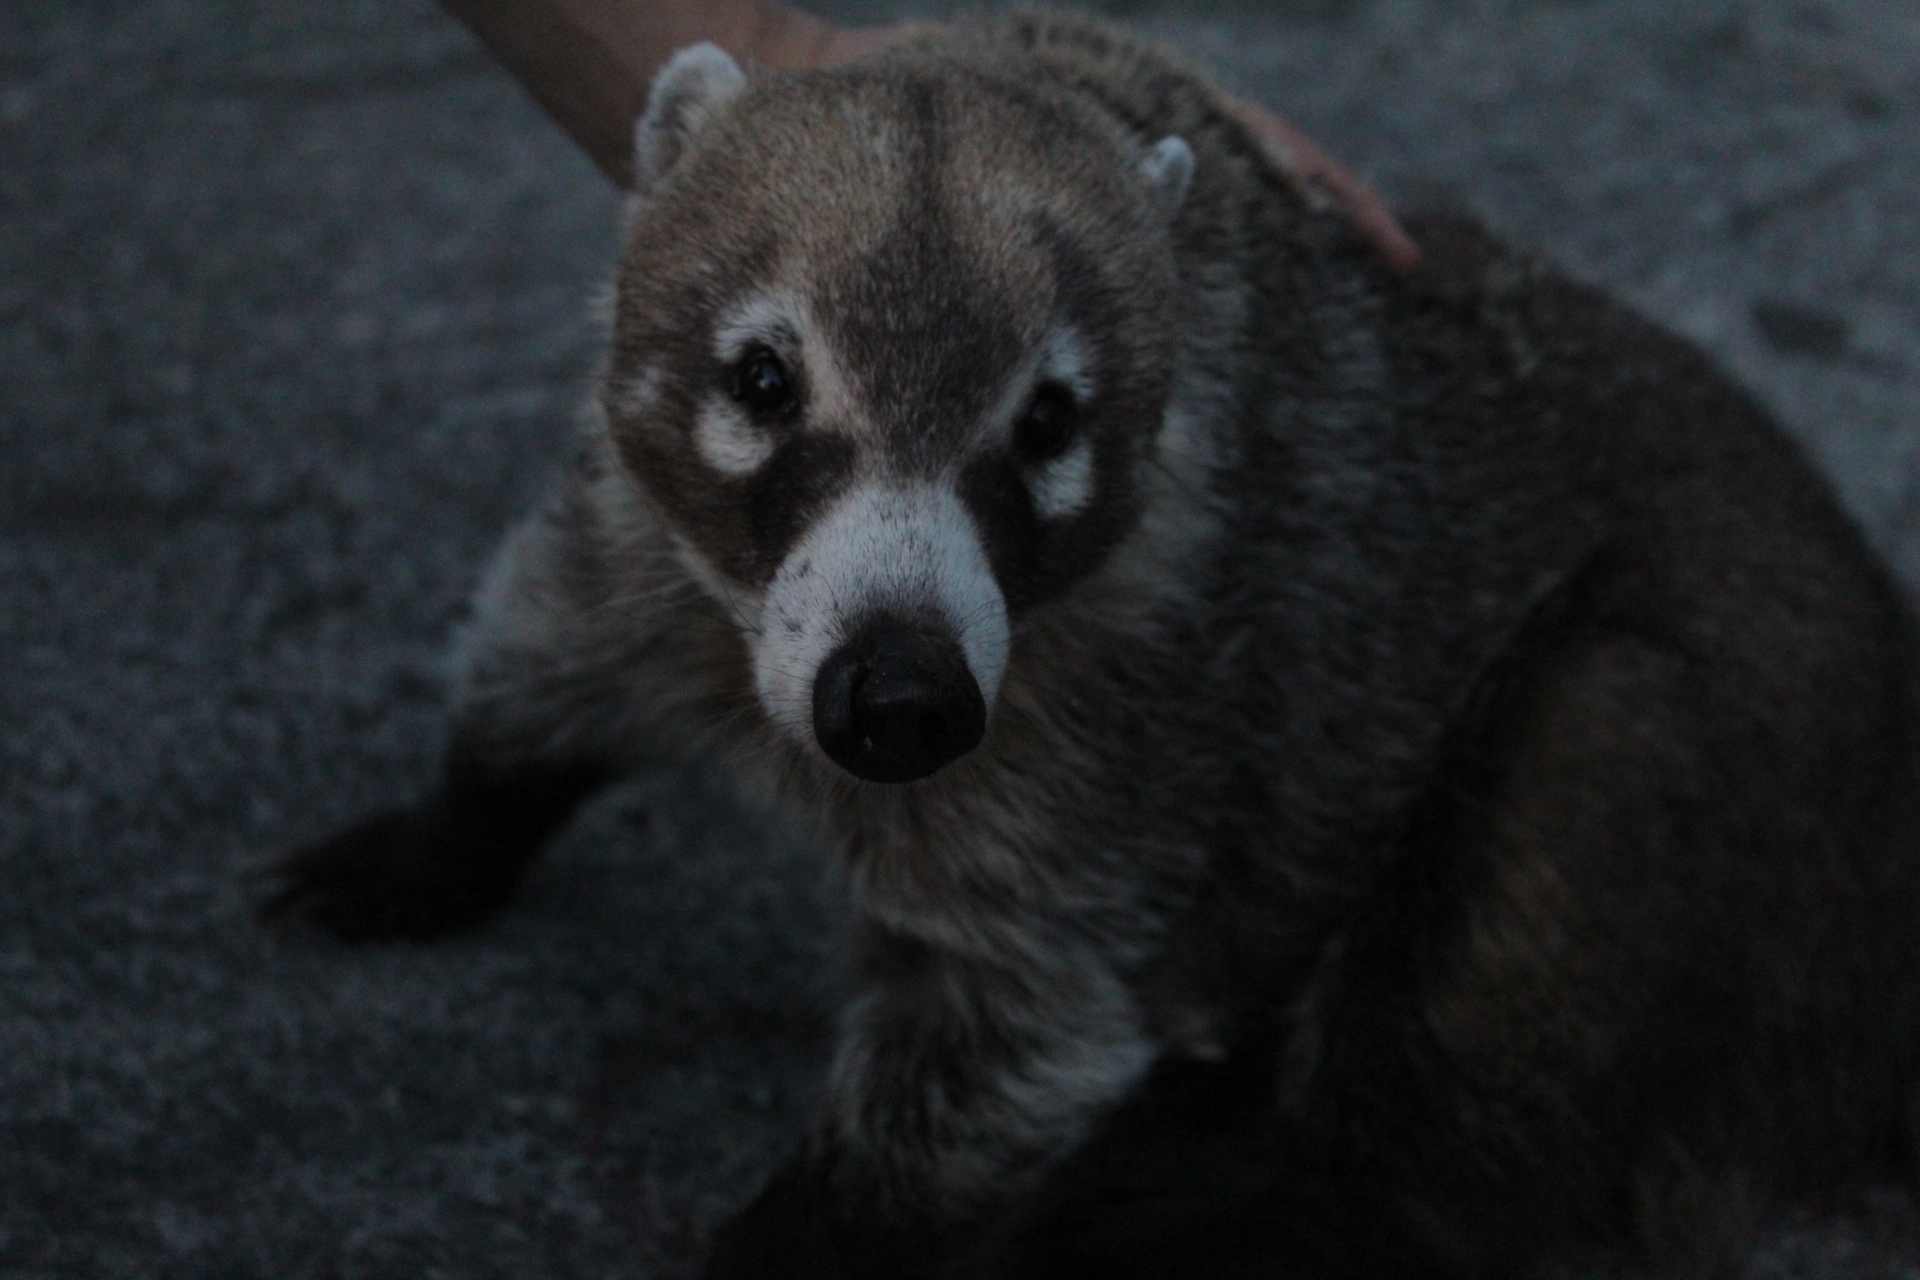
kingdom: Animalia
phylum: Chordata
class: Mammalia
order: Carnivora
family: Procyonidae
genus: Nasua
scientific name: Nasua narica
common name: White-nosed coati
